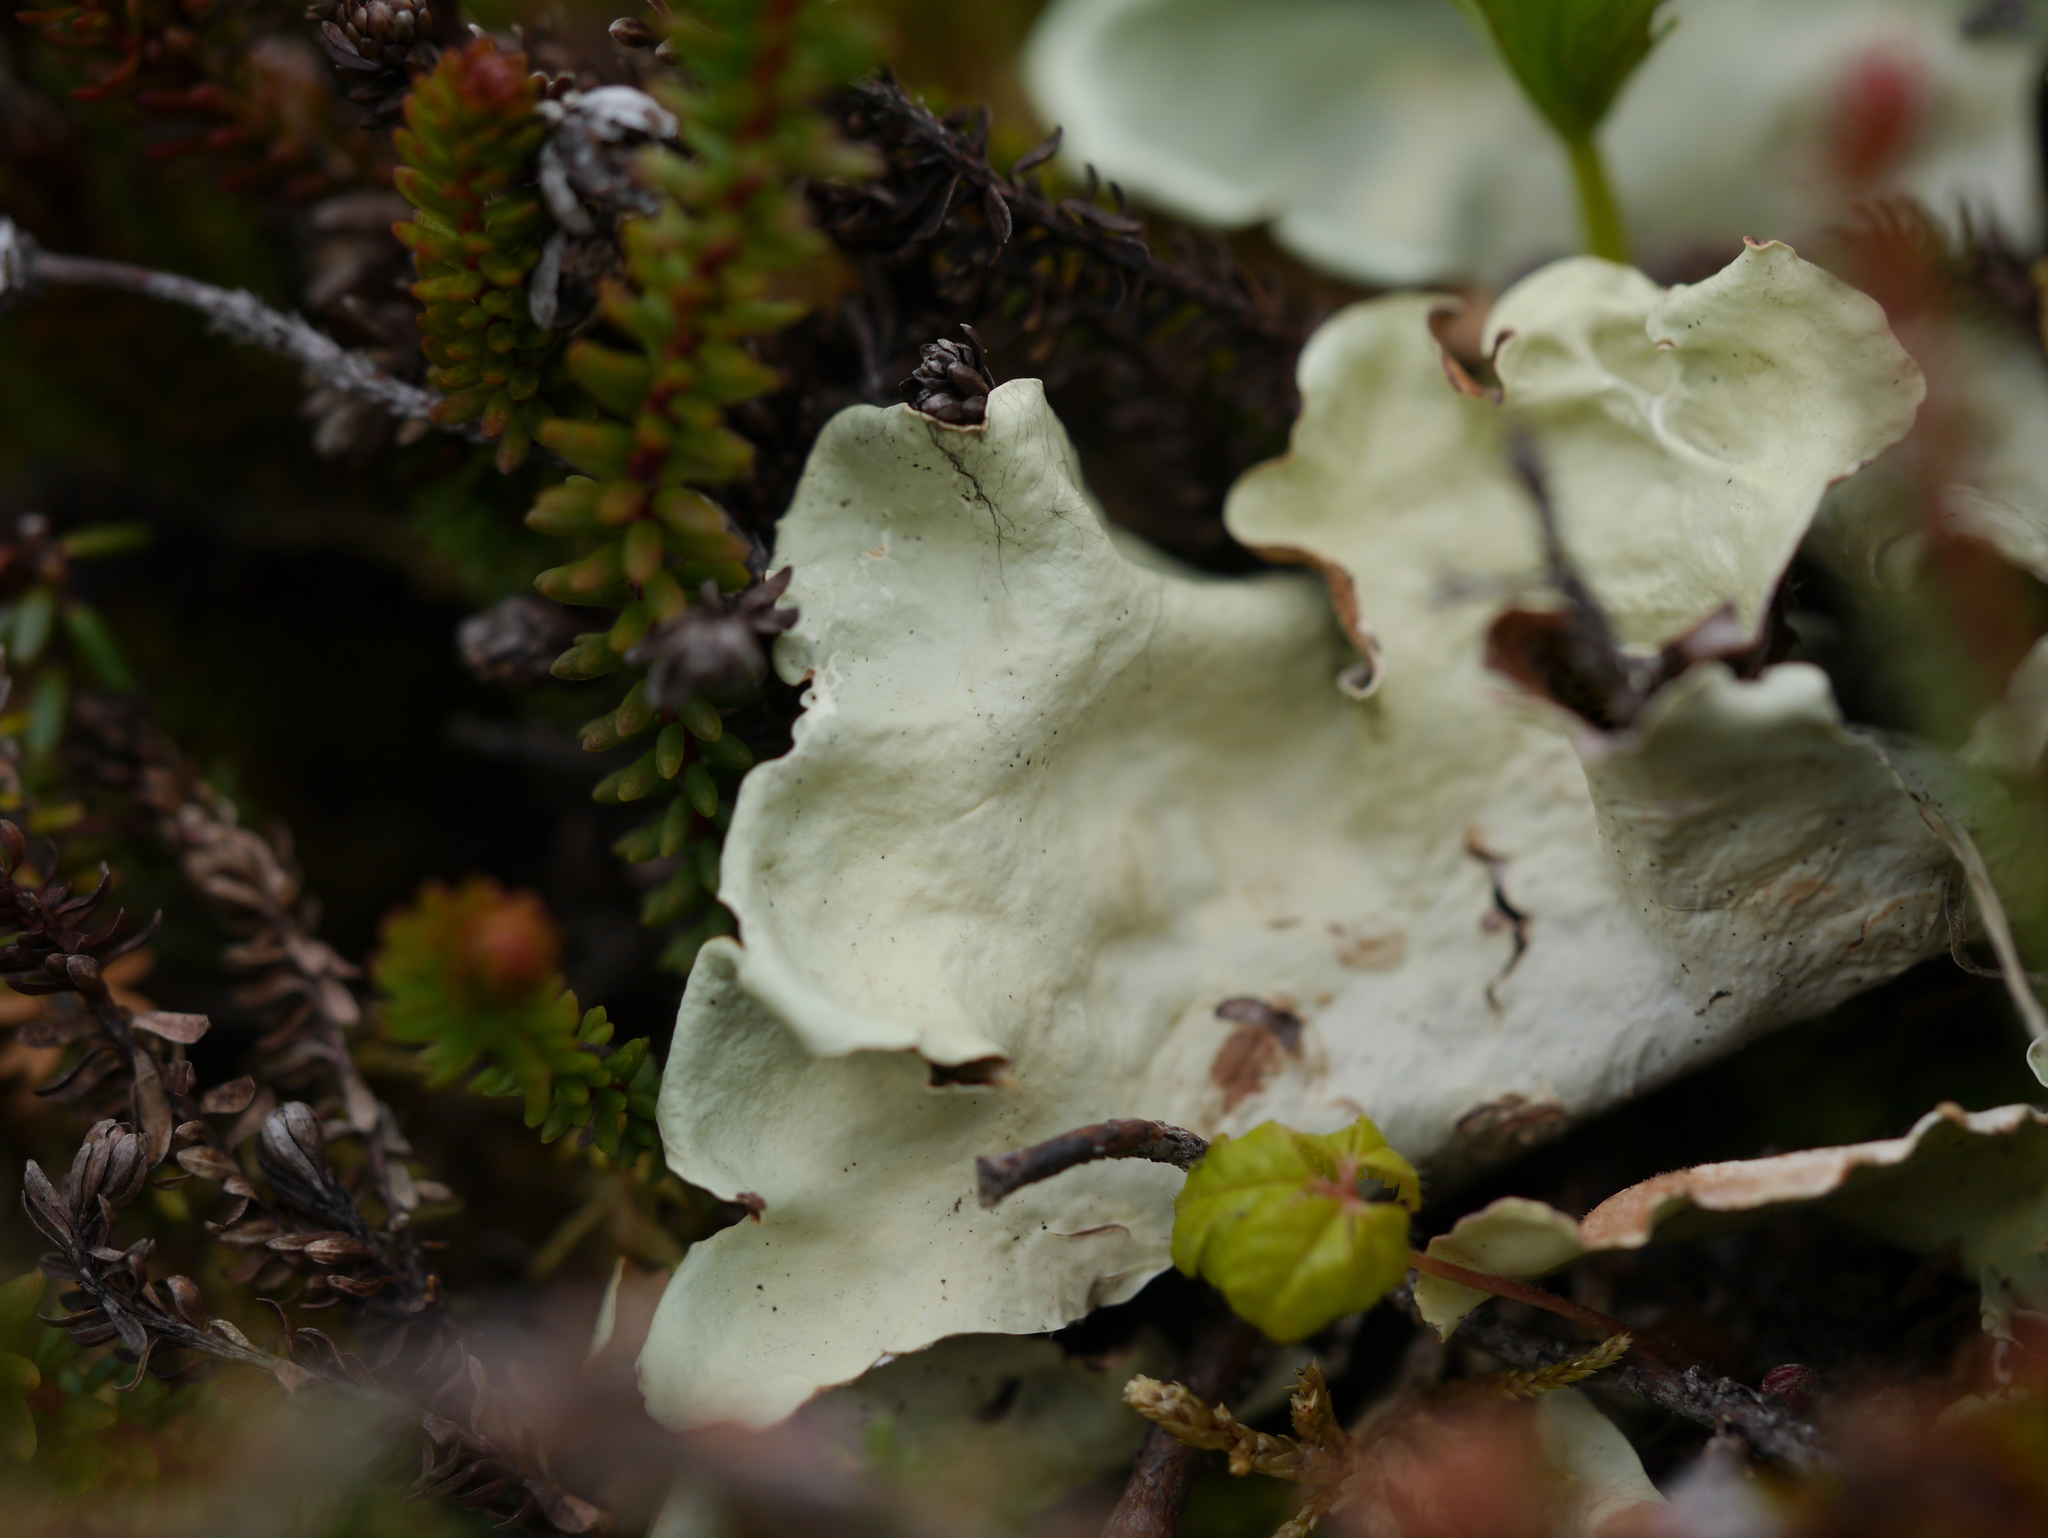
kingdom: Fungi
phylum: Ascomycota
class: Lecanoromycetes
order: Peltigerales
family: Nephromataceae
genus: Nephroma
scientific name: Nephroma arcticum
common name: Arctic kidney-lichen
